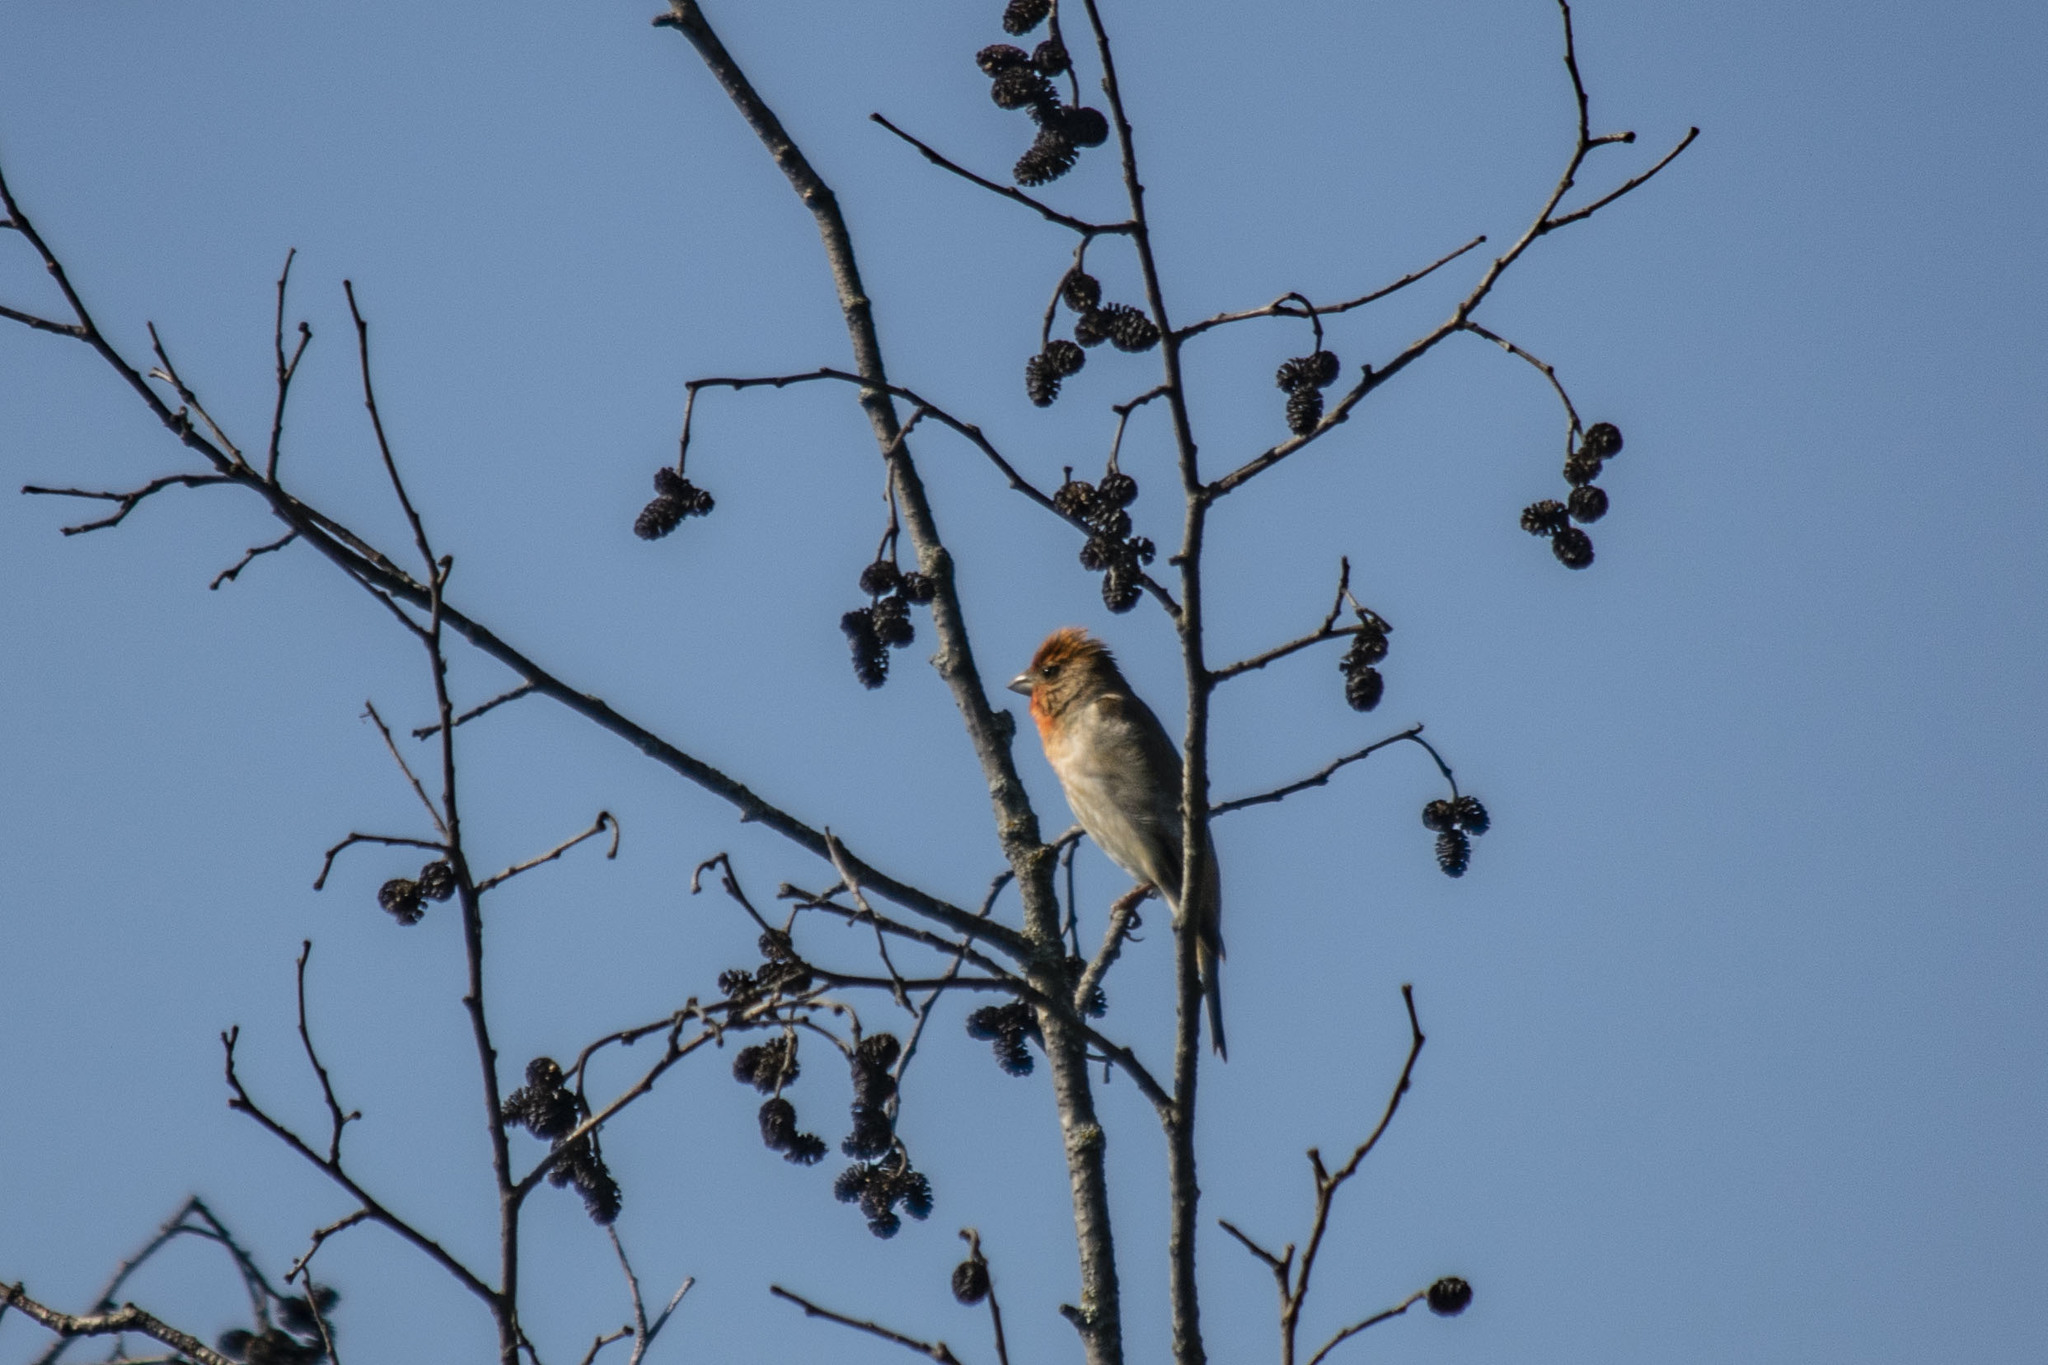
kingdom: Animalia
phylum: Chordata
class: Aves
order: Passeriformes
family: Fringillidae
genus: Carpodacus
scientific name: Carpodacus erythrinus
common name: Common rosefinch
